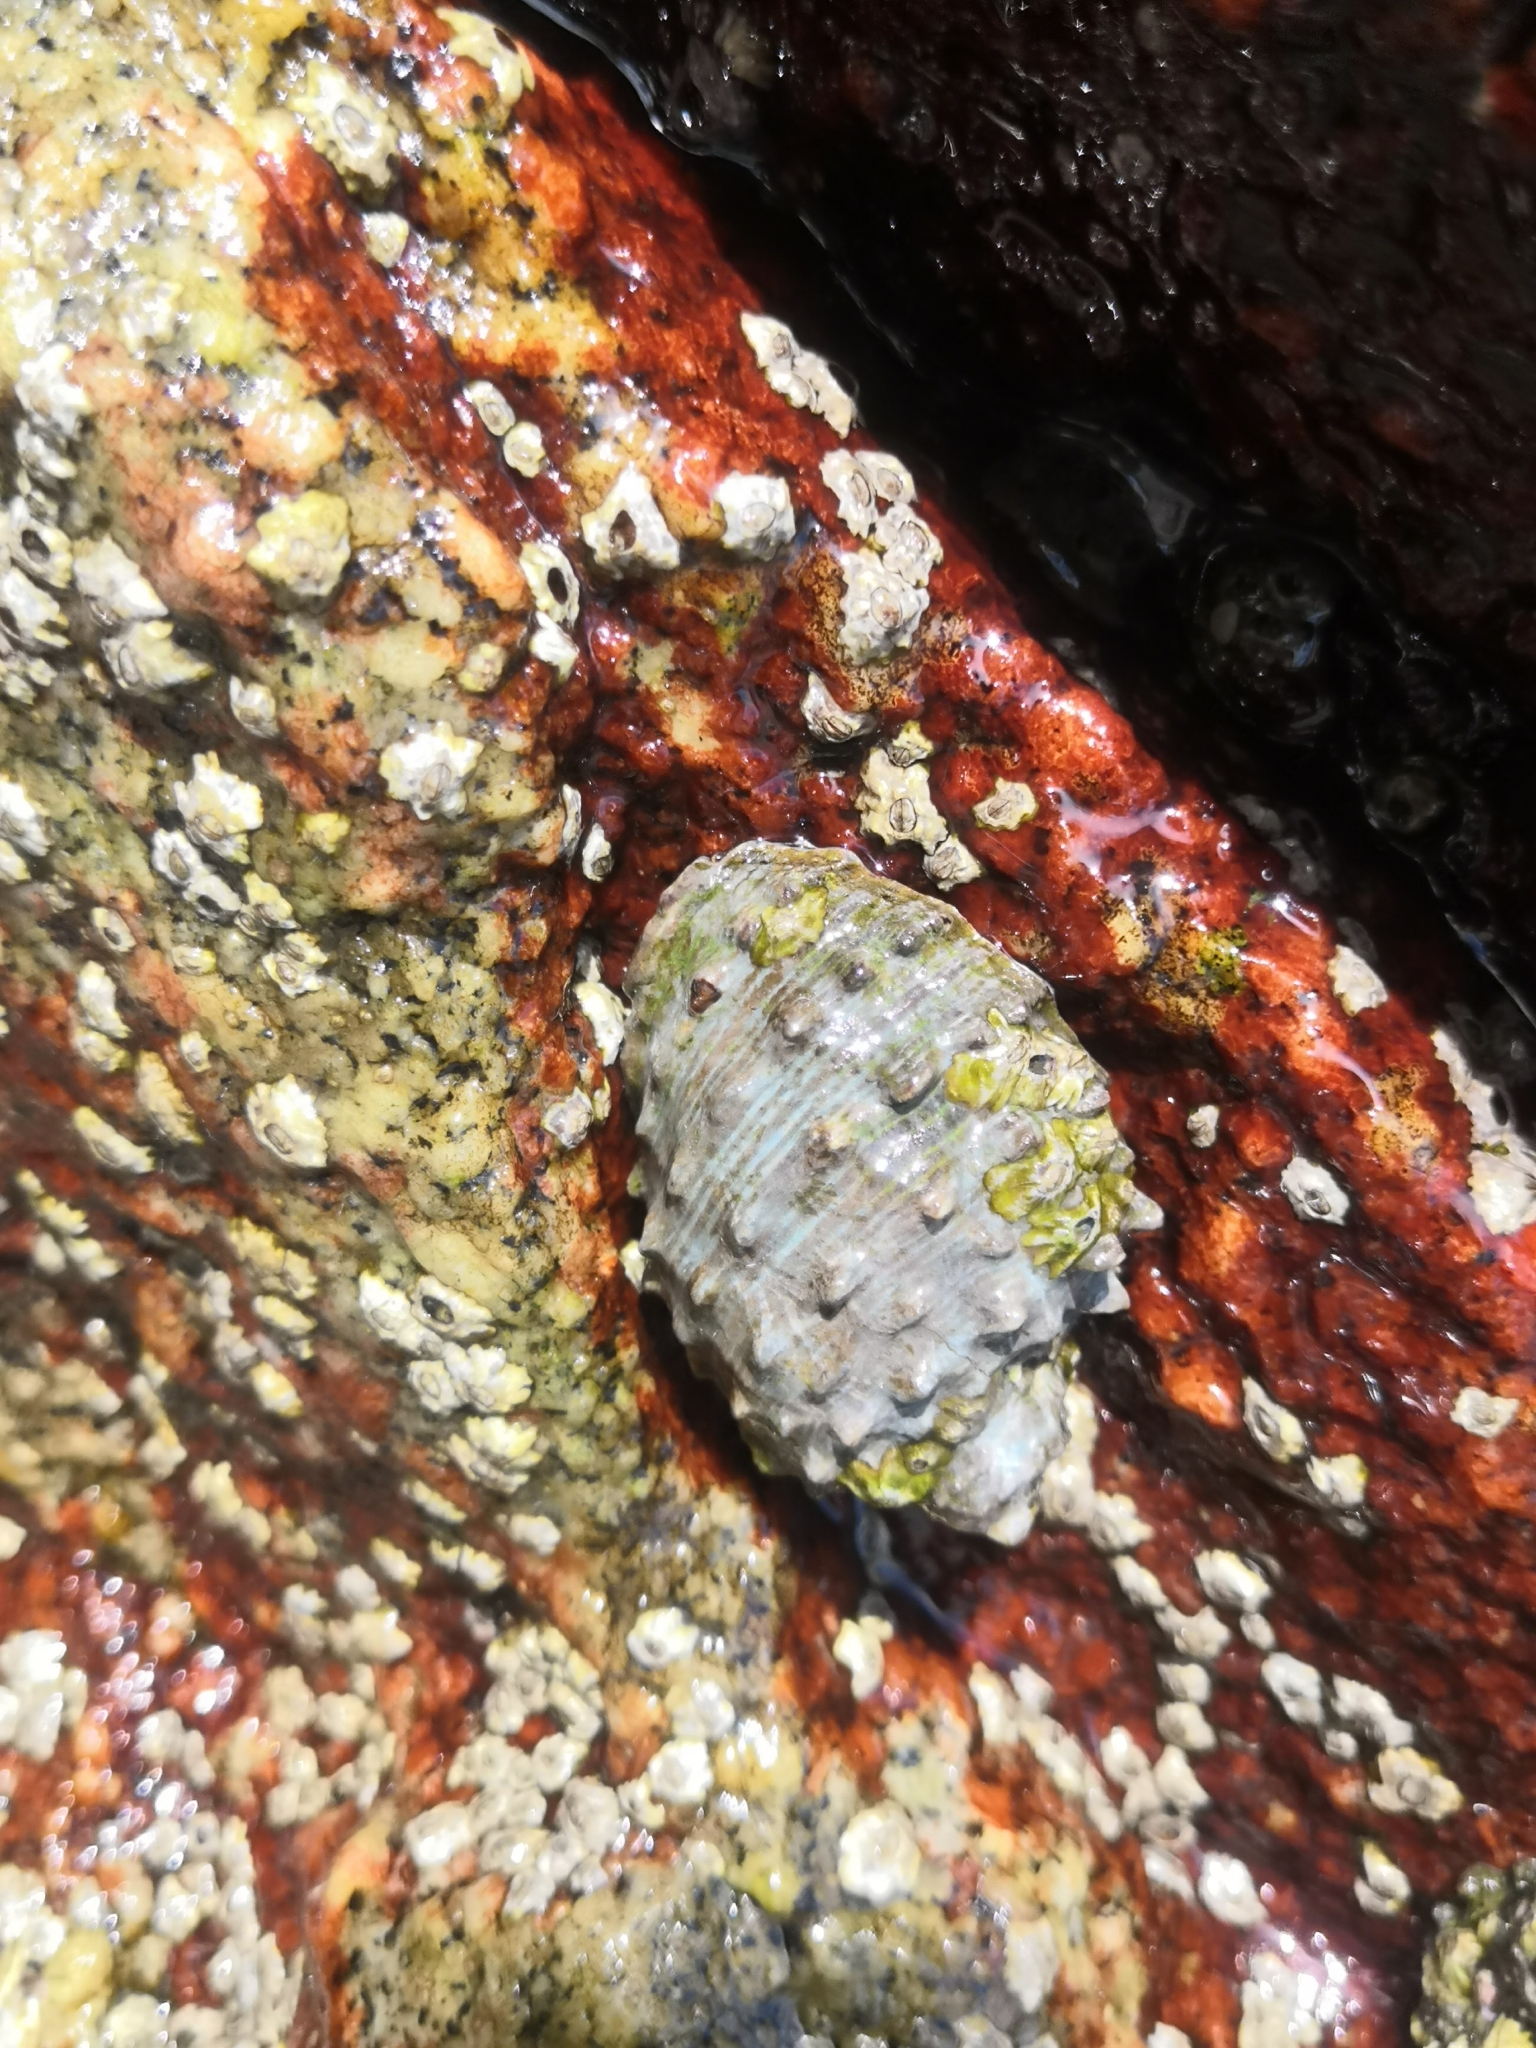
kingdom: Animalia
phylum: Mollusca
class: Gastropoda
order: Neogastropoda
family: Muricidae
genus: Plicopurpura
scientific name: Plicopurpura columellaris
